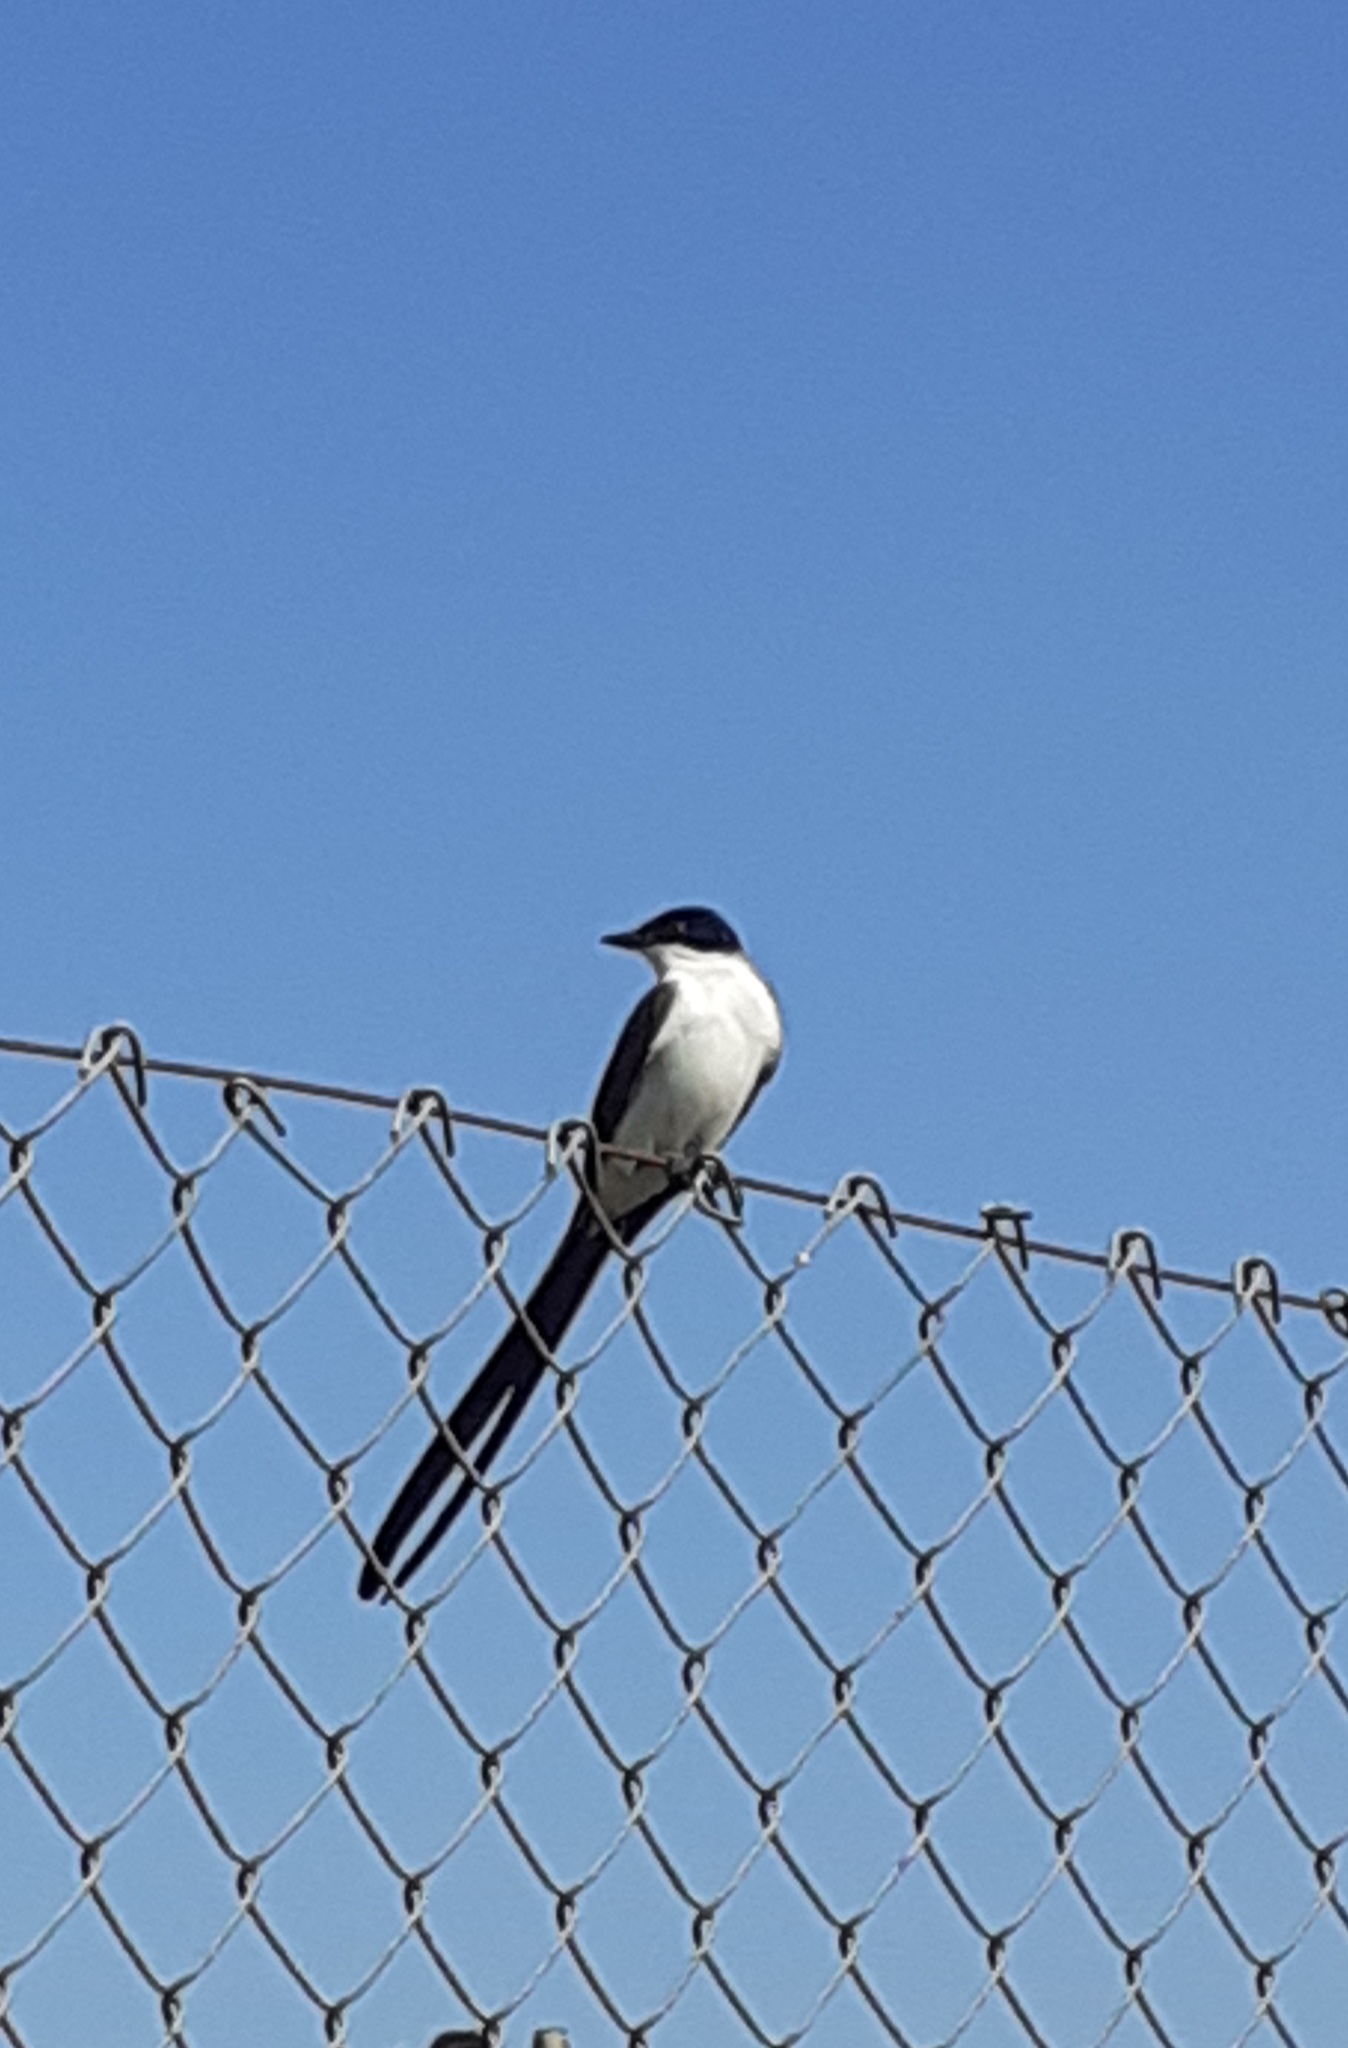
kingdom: Animalia
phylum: Chordata
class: Aves
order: Passeriformes
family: Tyrannidae
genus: Tyrannus
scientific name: Tyrannus savana
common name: Fork-tailed flycatcher
